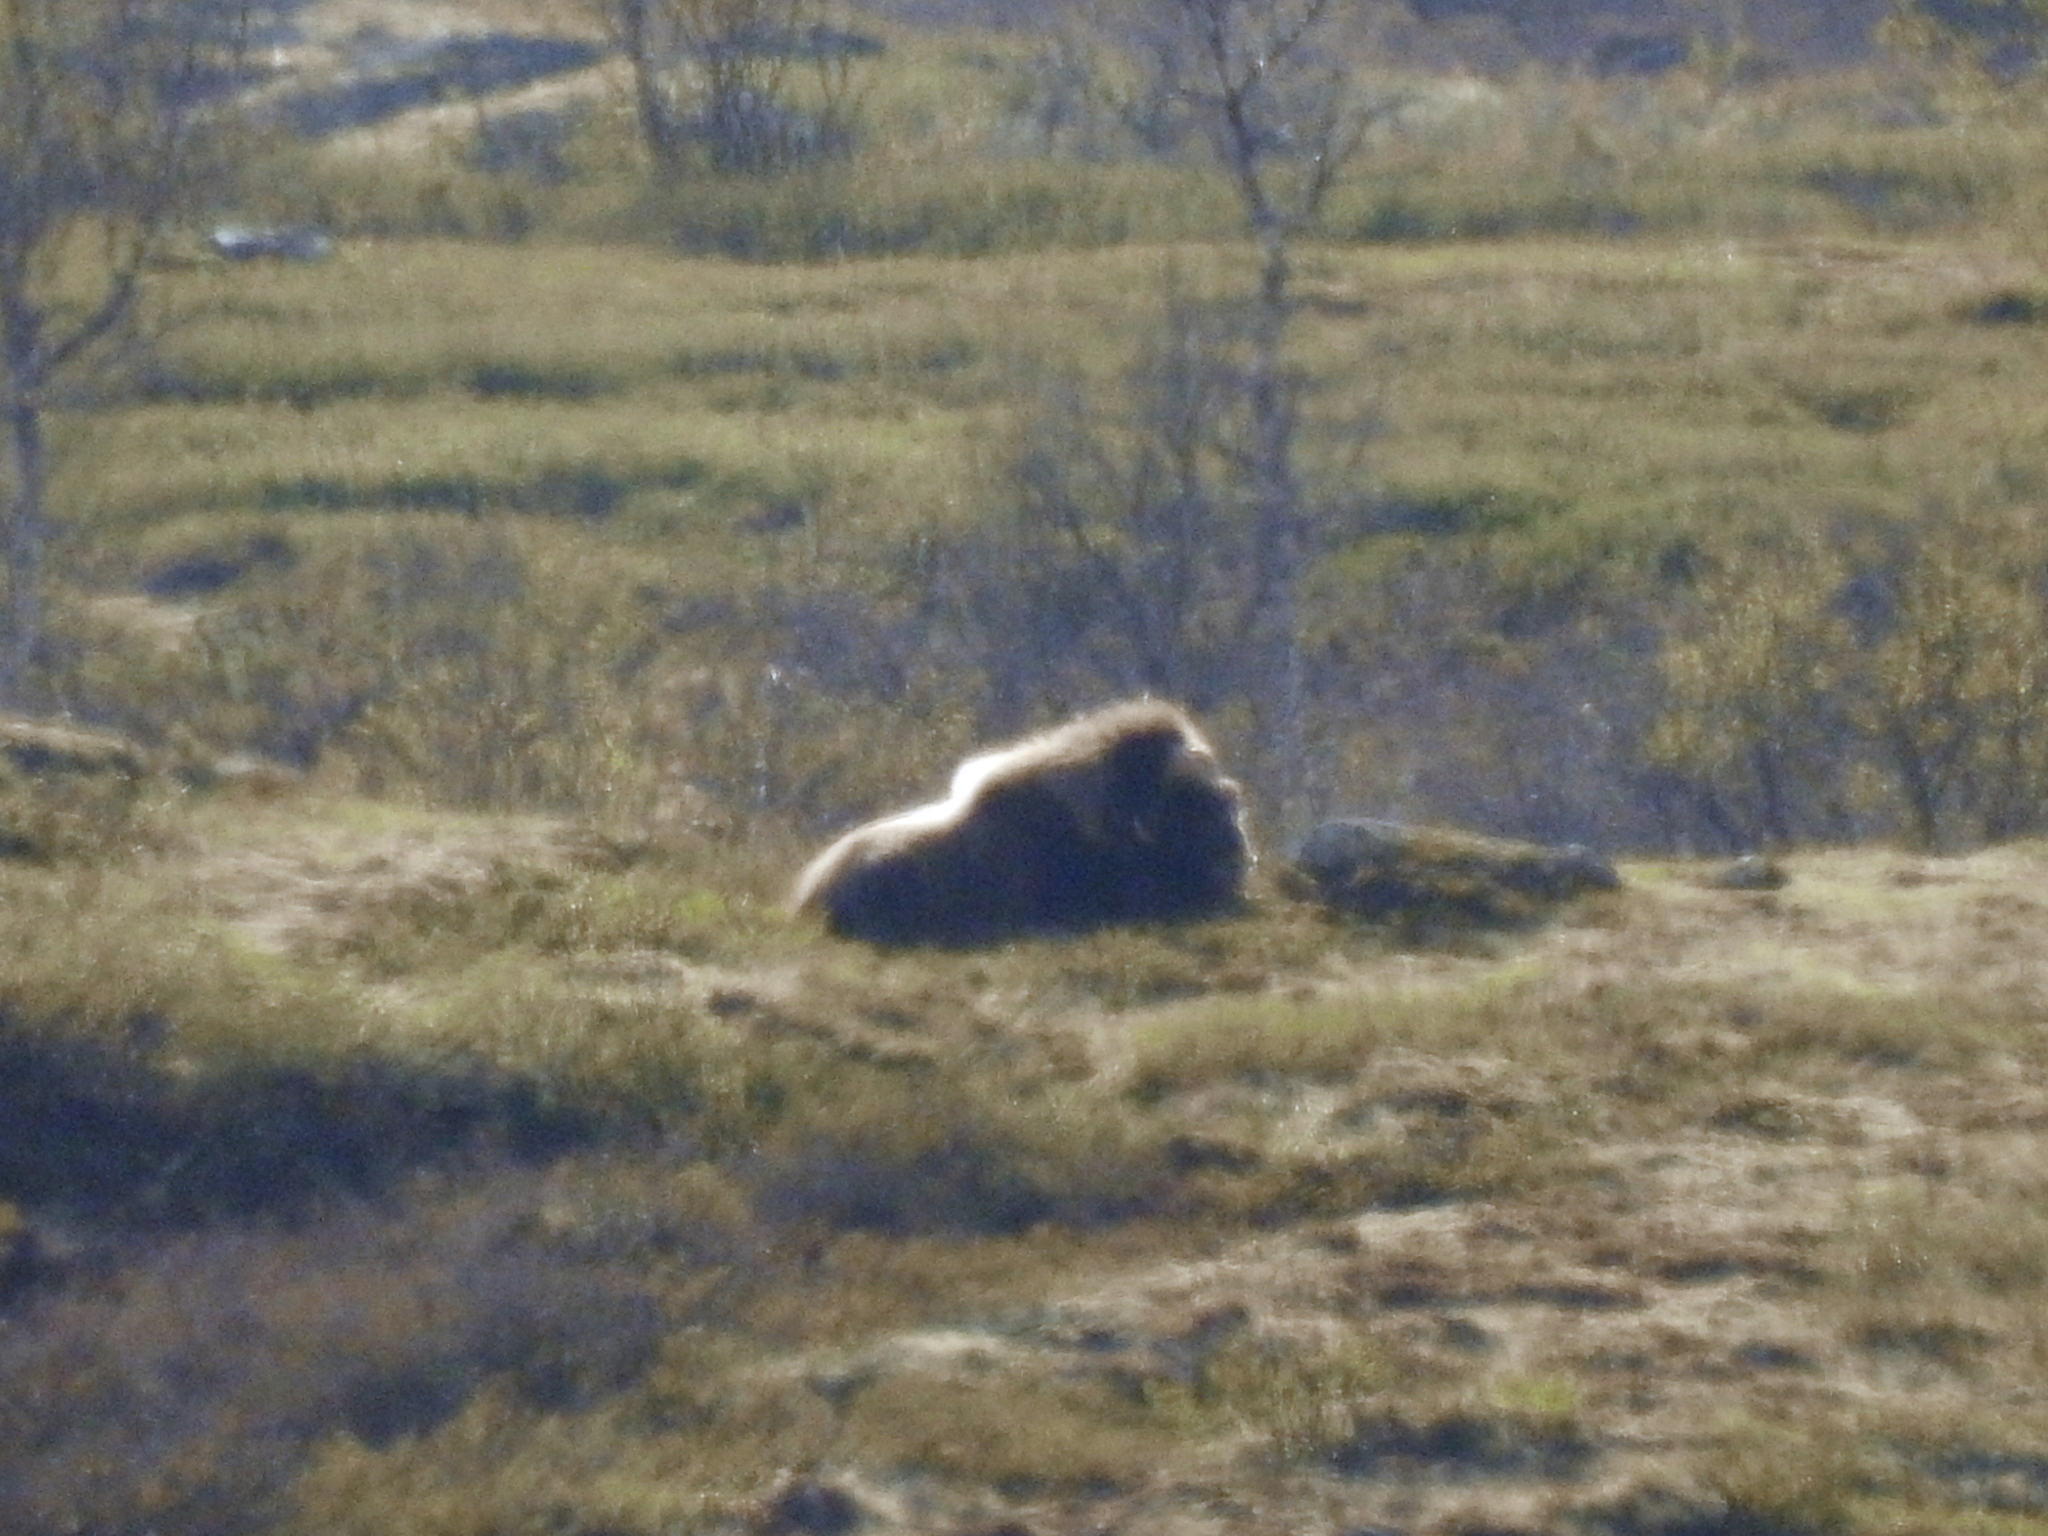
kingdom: Animalia
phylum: Chordata
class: Mammalia
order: Artiodactyla
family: Bovidae
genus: Ovibos
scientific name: Ovibos moschatus
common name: Muskox
